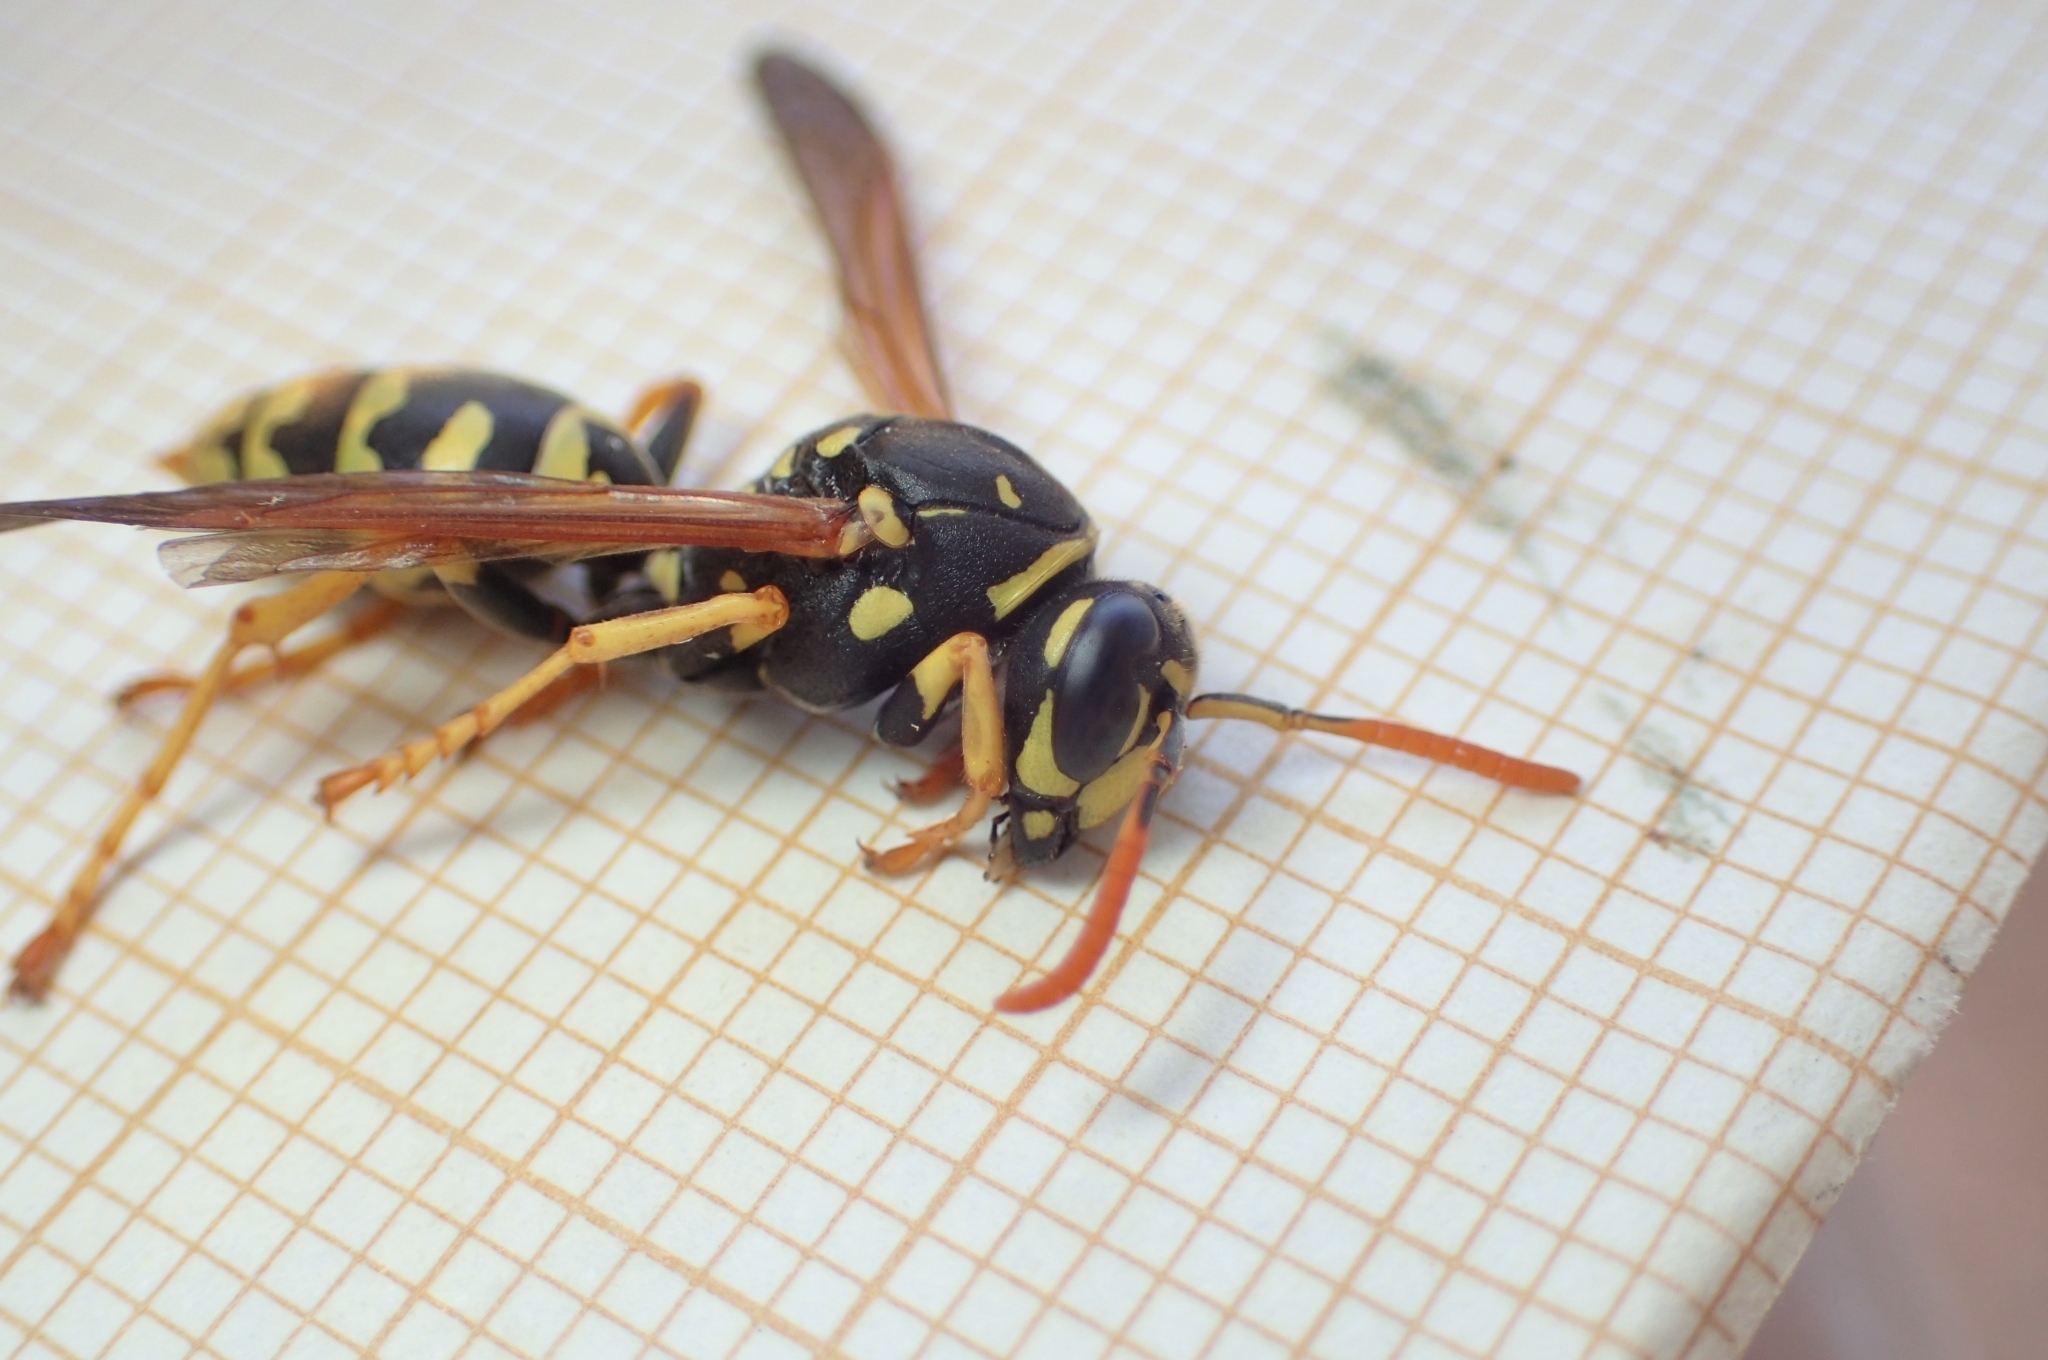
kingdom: Animalia
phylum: Arthropoda
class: Insecta
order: Hymenoptera
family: Eumenidae
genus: Polistes
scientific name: Polistes dominula
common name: Paper wasp
